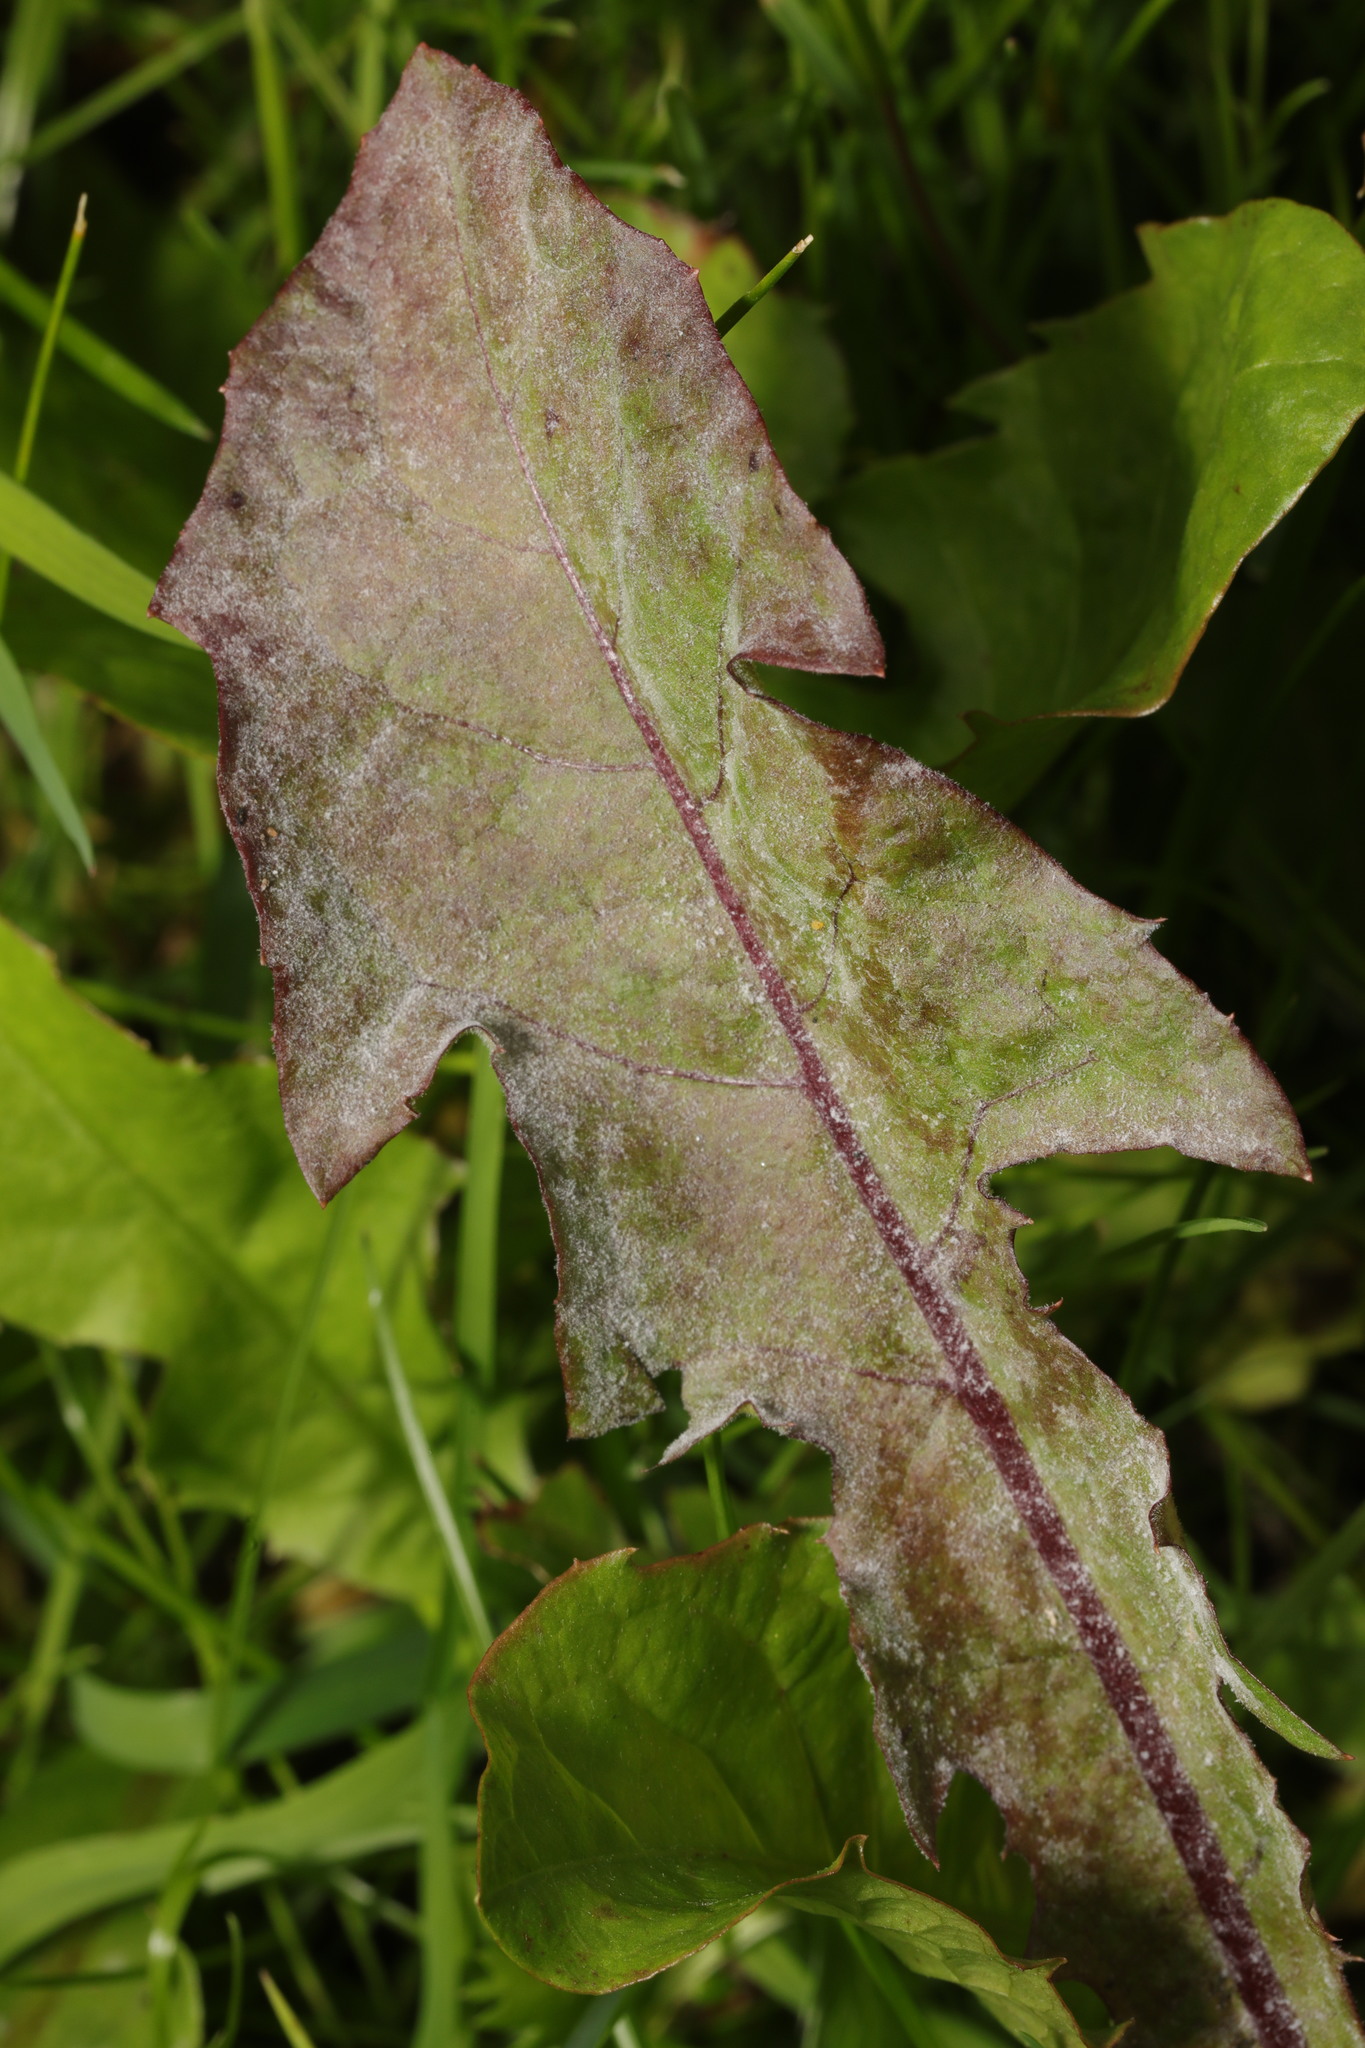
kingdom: Fungi
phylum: Ascomycota
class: Leotiomycetes
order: Helotiales
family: Erysiphaceae
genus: Podosphaera
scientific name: Podosphaera erigerontis-canadensis
